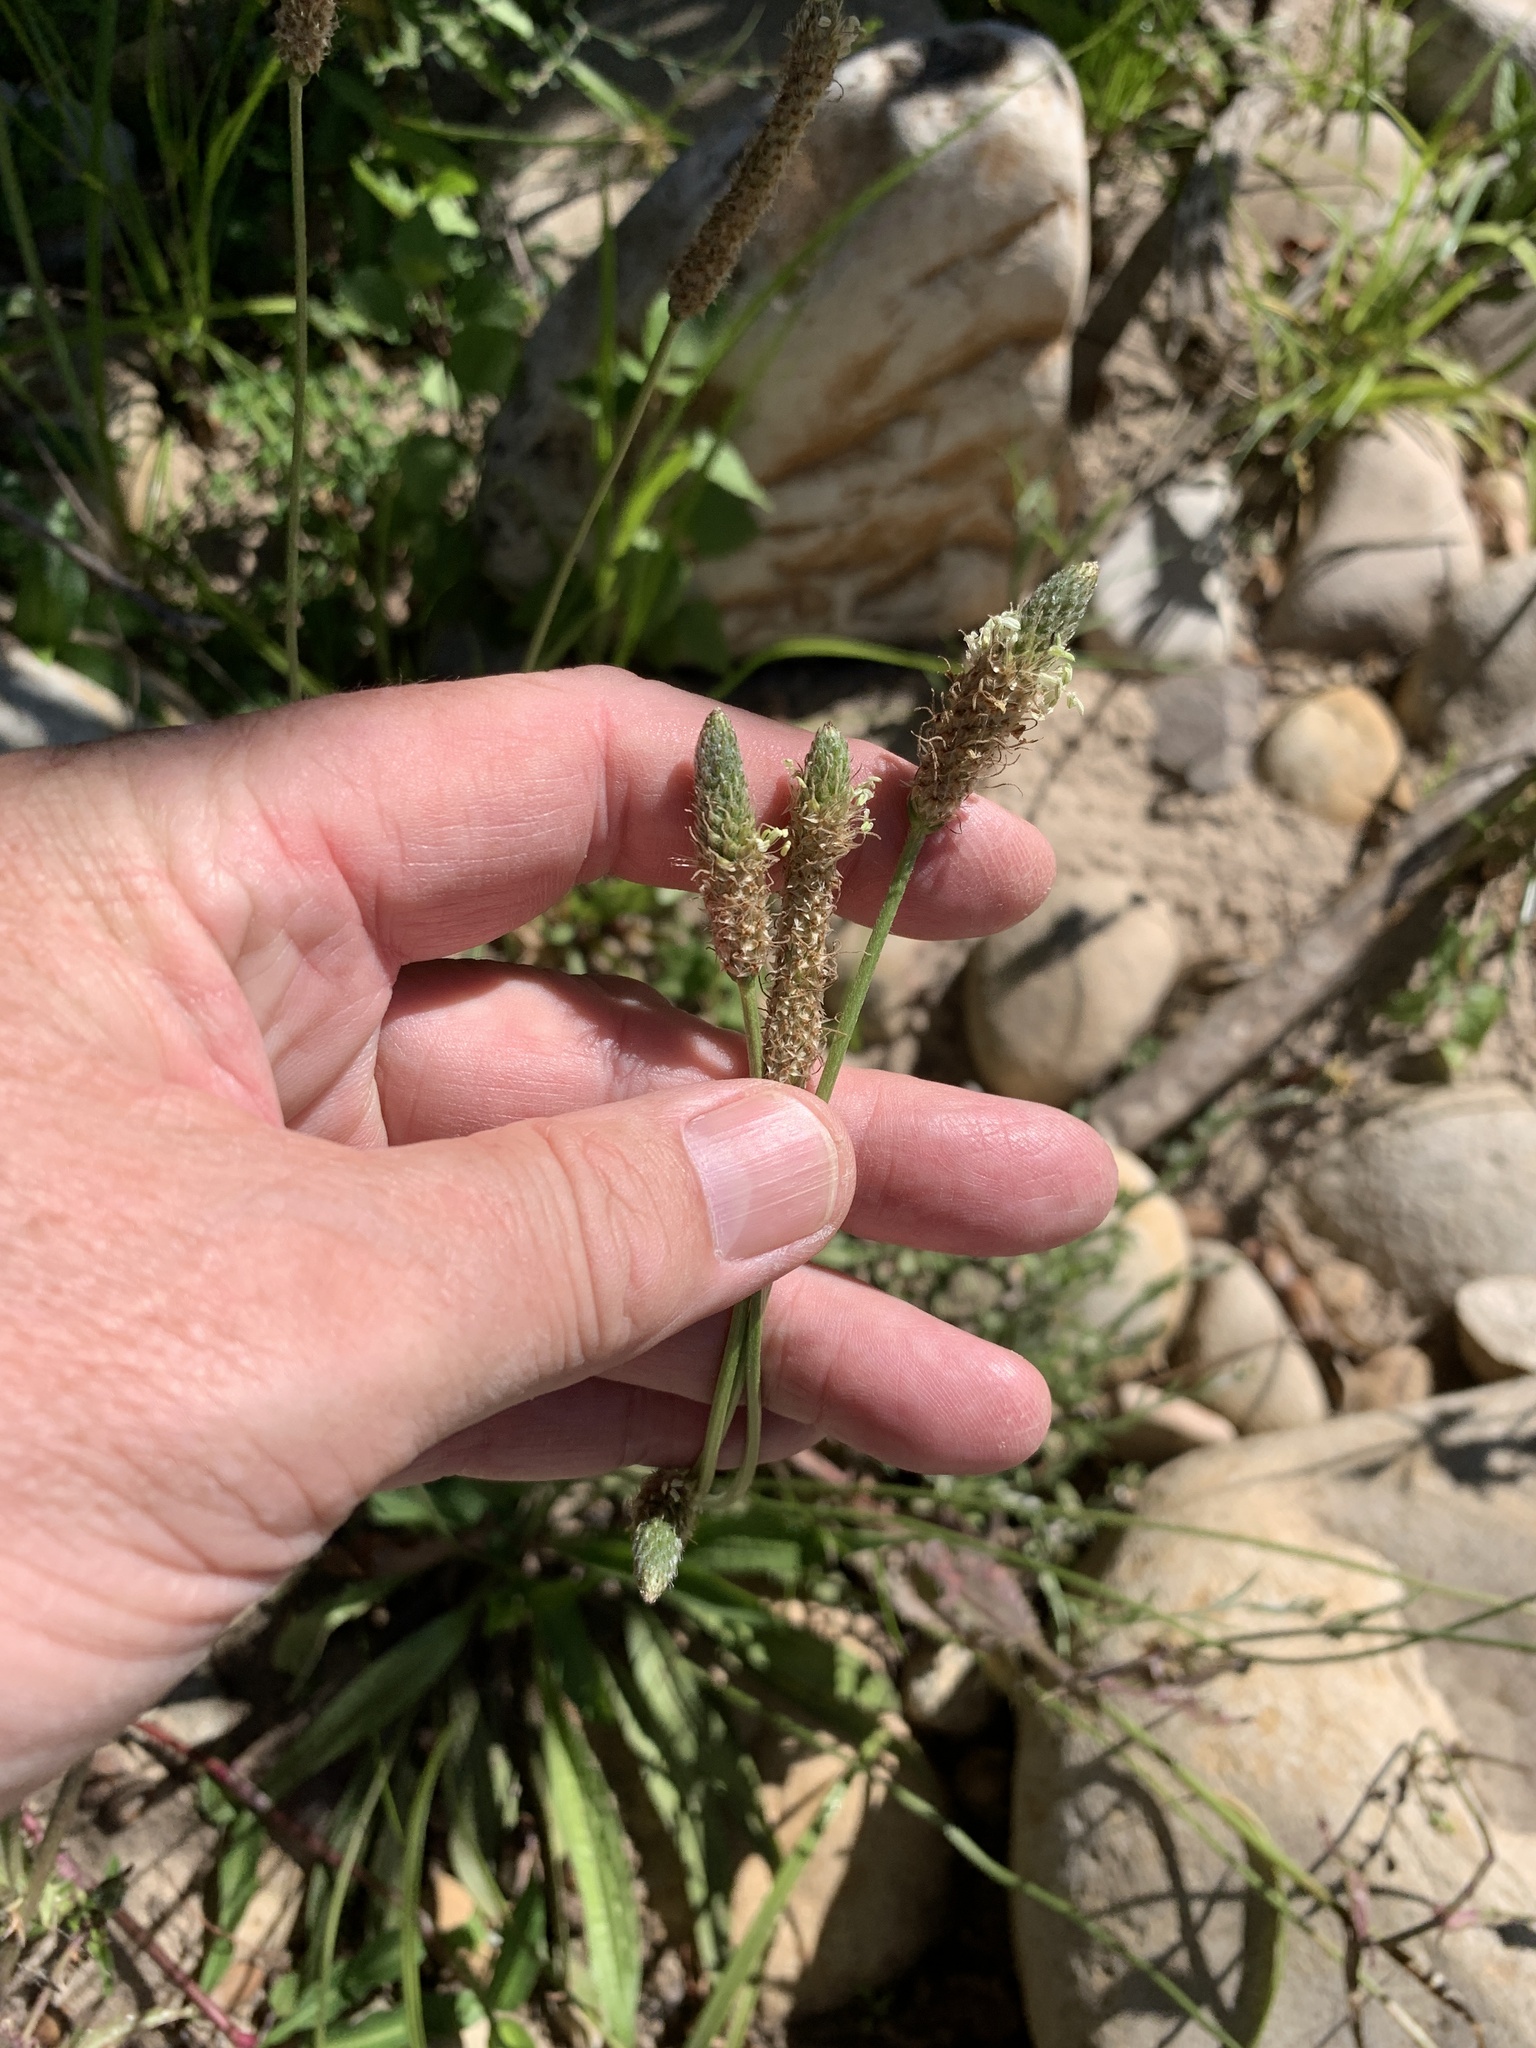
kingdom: Plantae
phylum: Tracheophyta
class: Magnoliopsida
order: Lamiales
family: Plantaginaceae
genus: Plantago
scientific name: Plantago lanceolata
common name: Ribwort plantain
